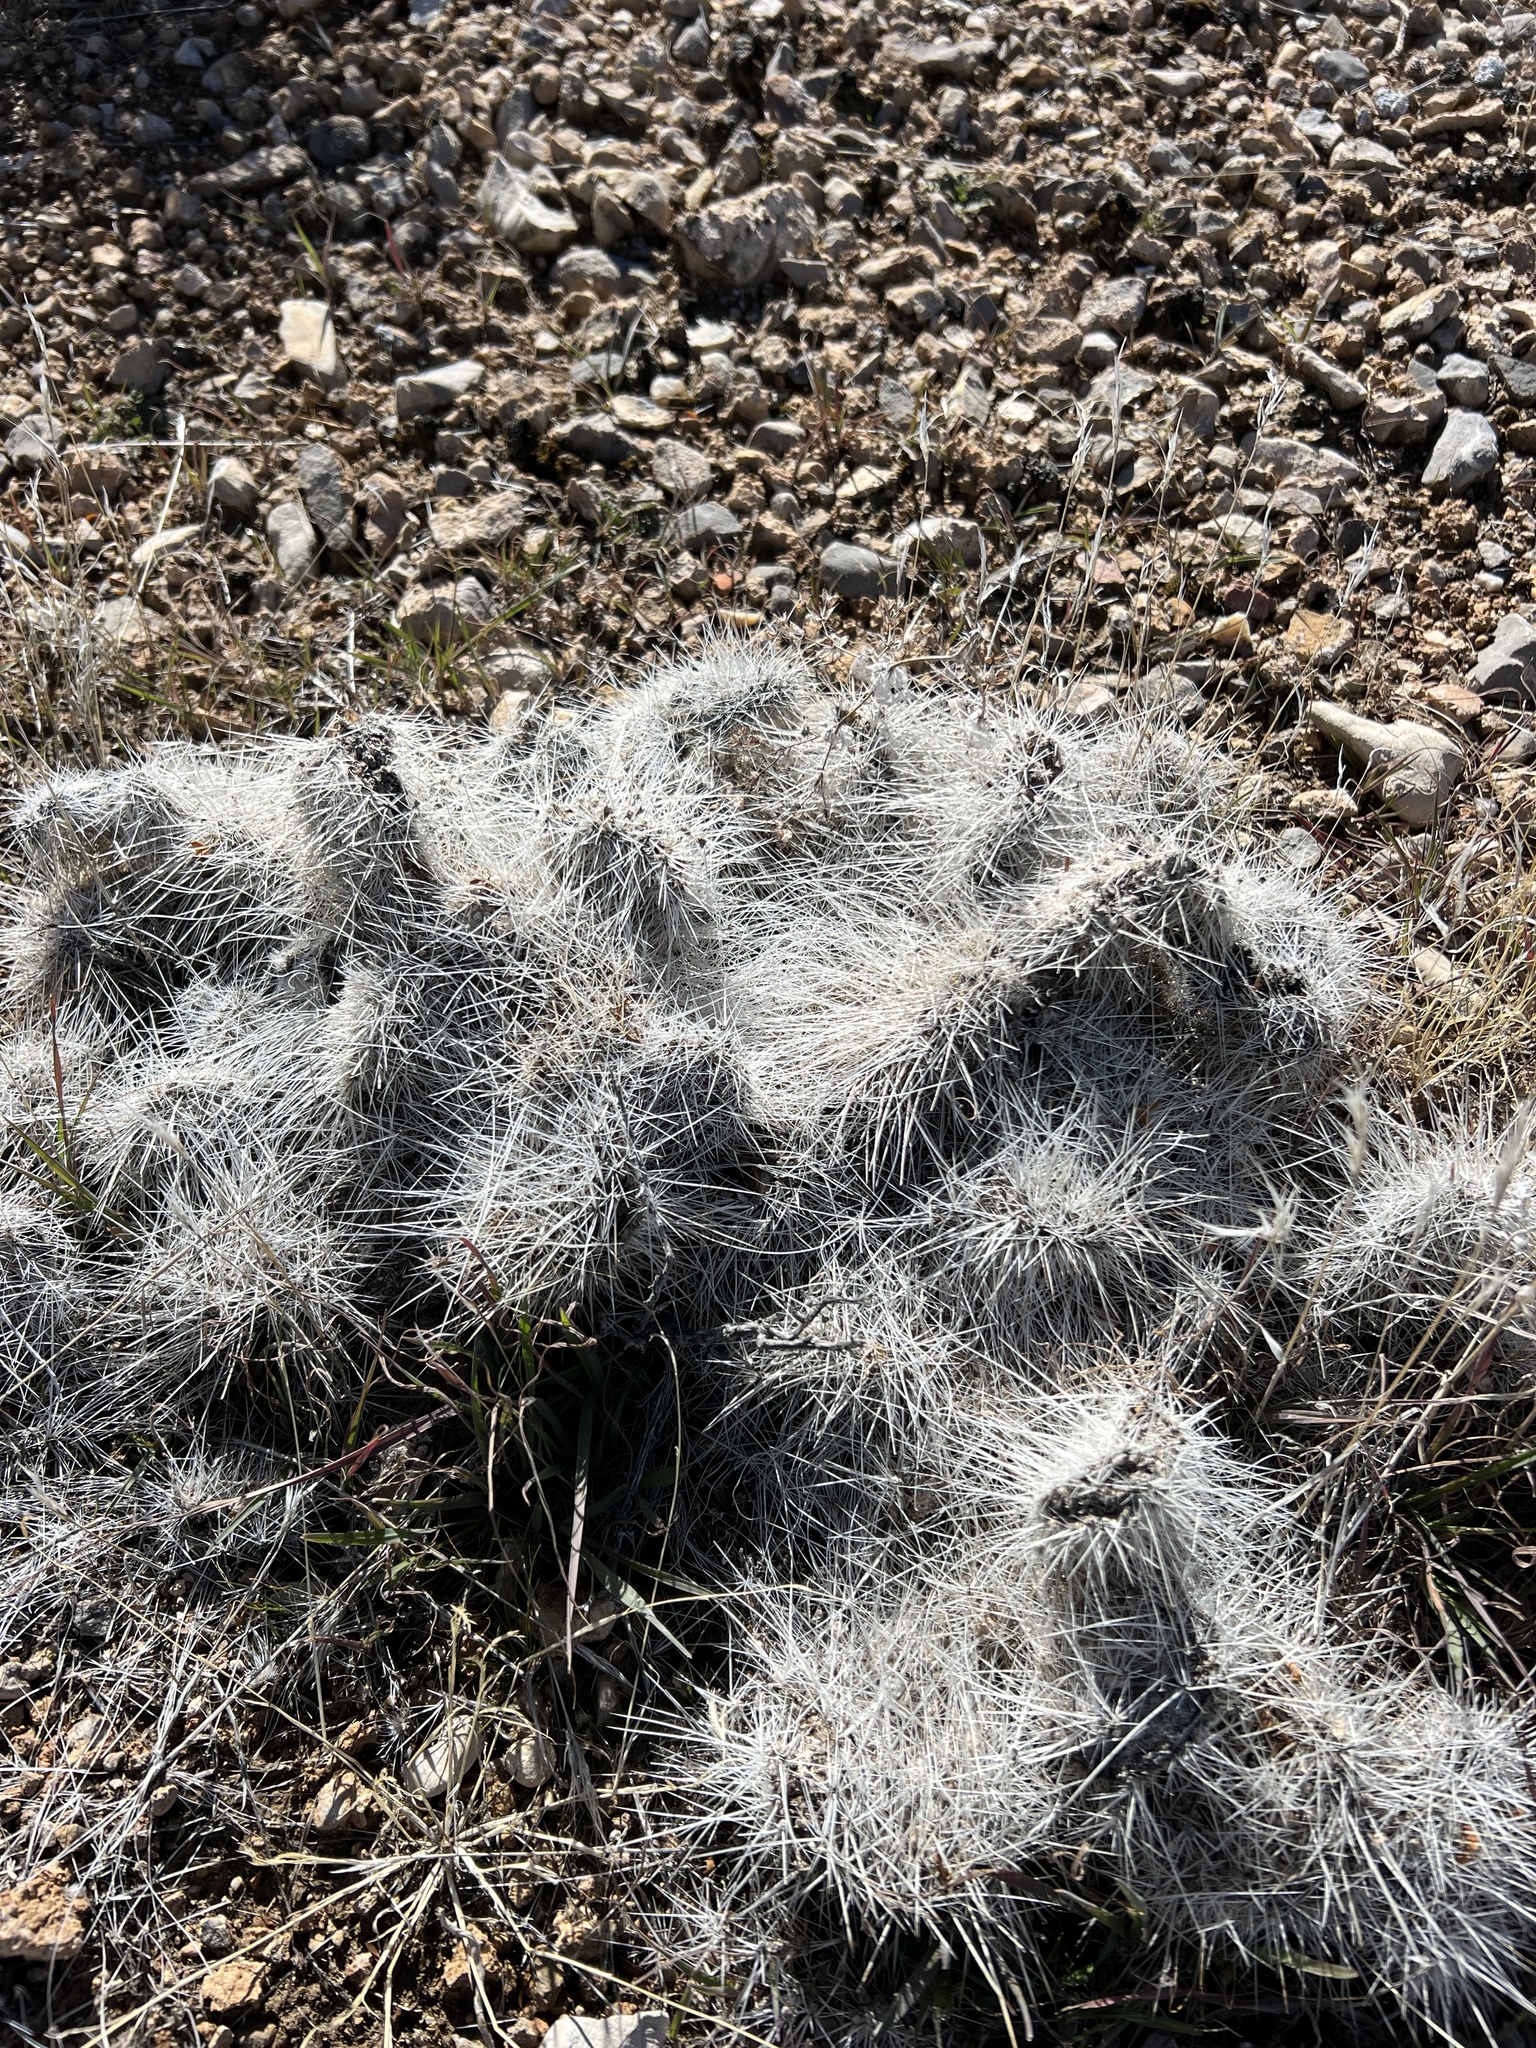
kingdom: Plantae
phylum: Tracheophyta
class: Magnoliopsida
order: Caryophyllales
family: Cactaceae
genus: Opuntia
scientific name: Opuntia polyacantha
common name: Plains prickly-pear
